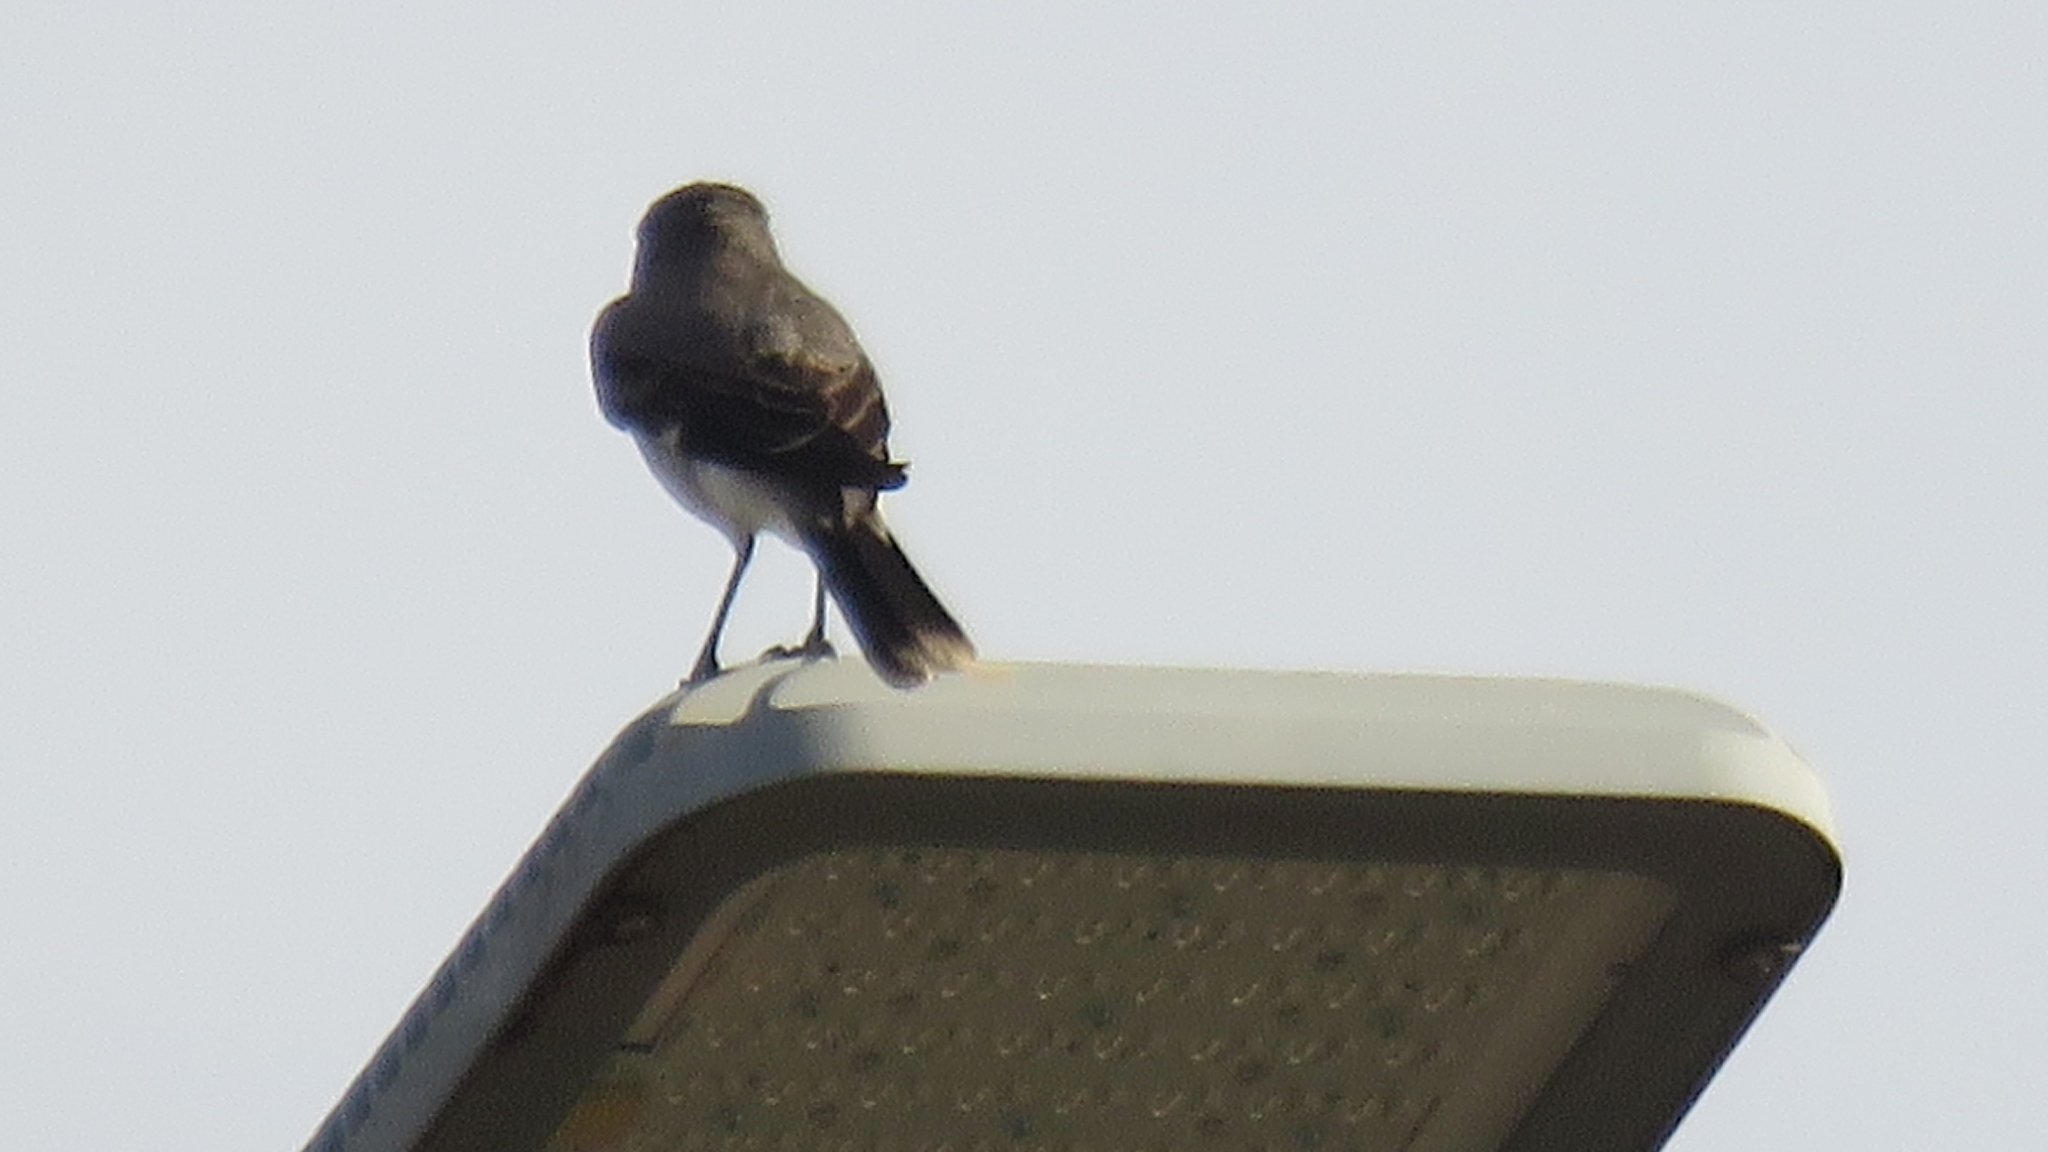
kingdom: Animalia
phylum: Chordata
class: Aves
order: Passeriformes
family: Tyrannidae
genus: Xolmis
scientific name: Xolmis cinereus
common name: Grey monjita
